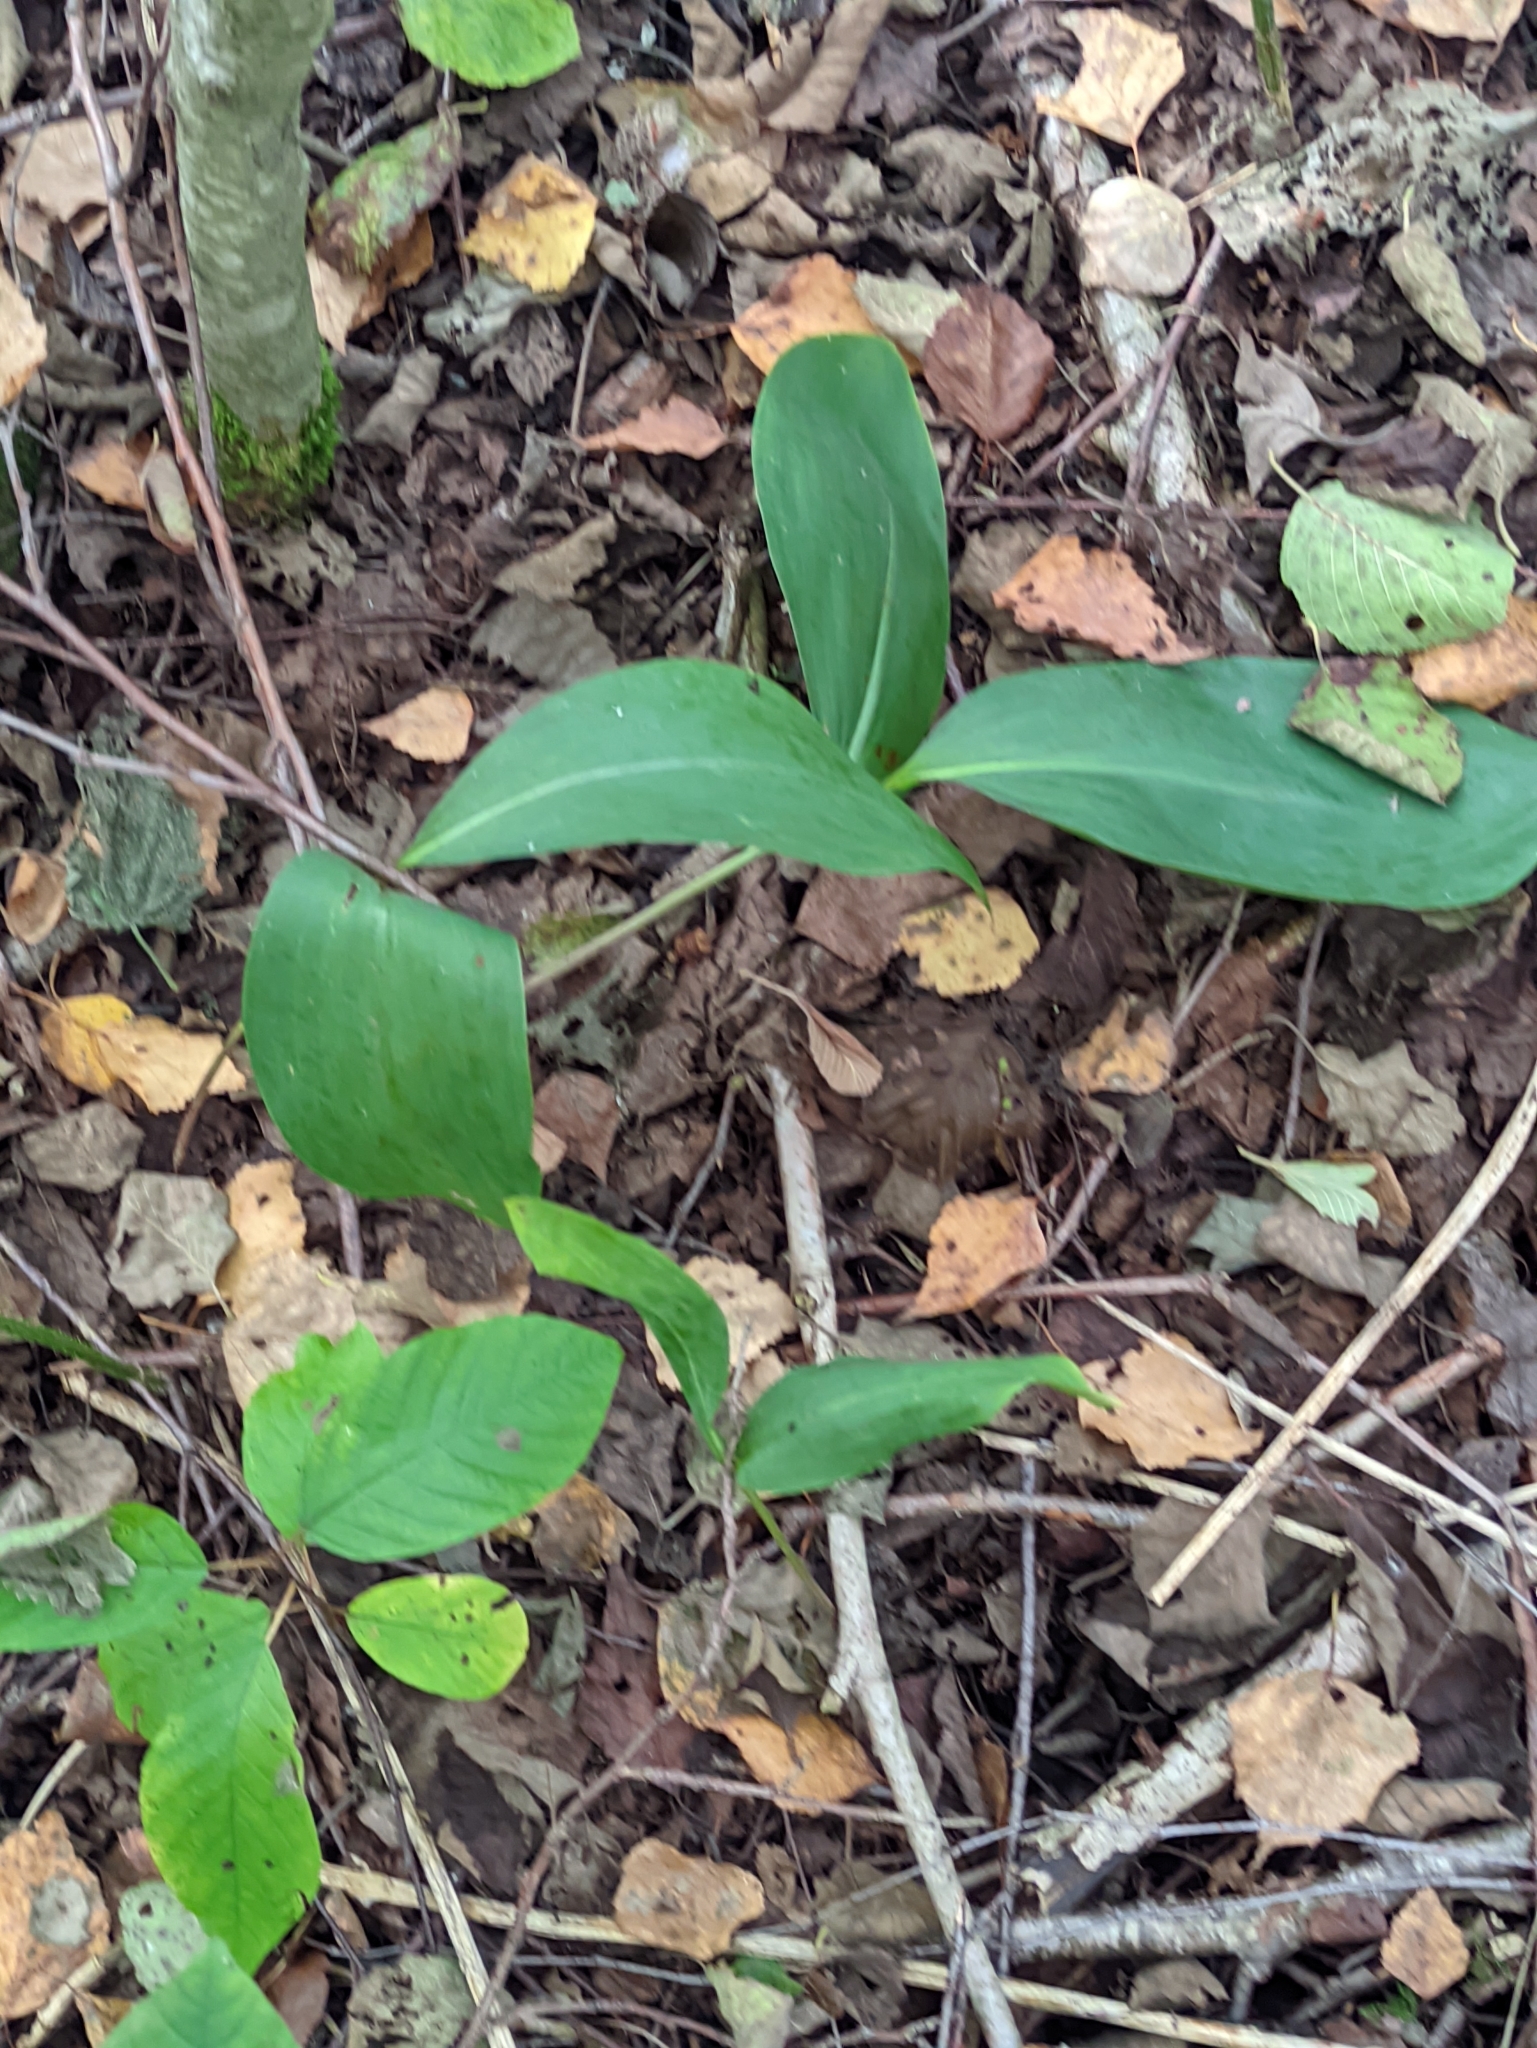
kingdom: Plantae
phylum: Tracheophyta
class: Liliopsida
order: Asparagales
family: Asparagaceae
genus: Convallaria
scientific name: Convallaria majalis
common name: Lily-of-the-valley
